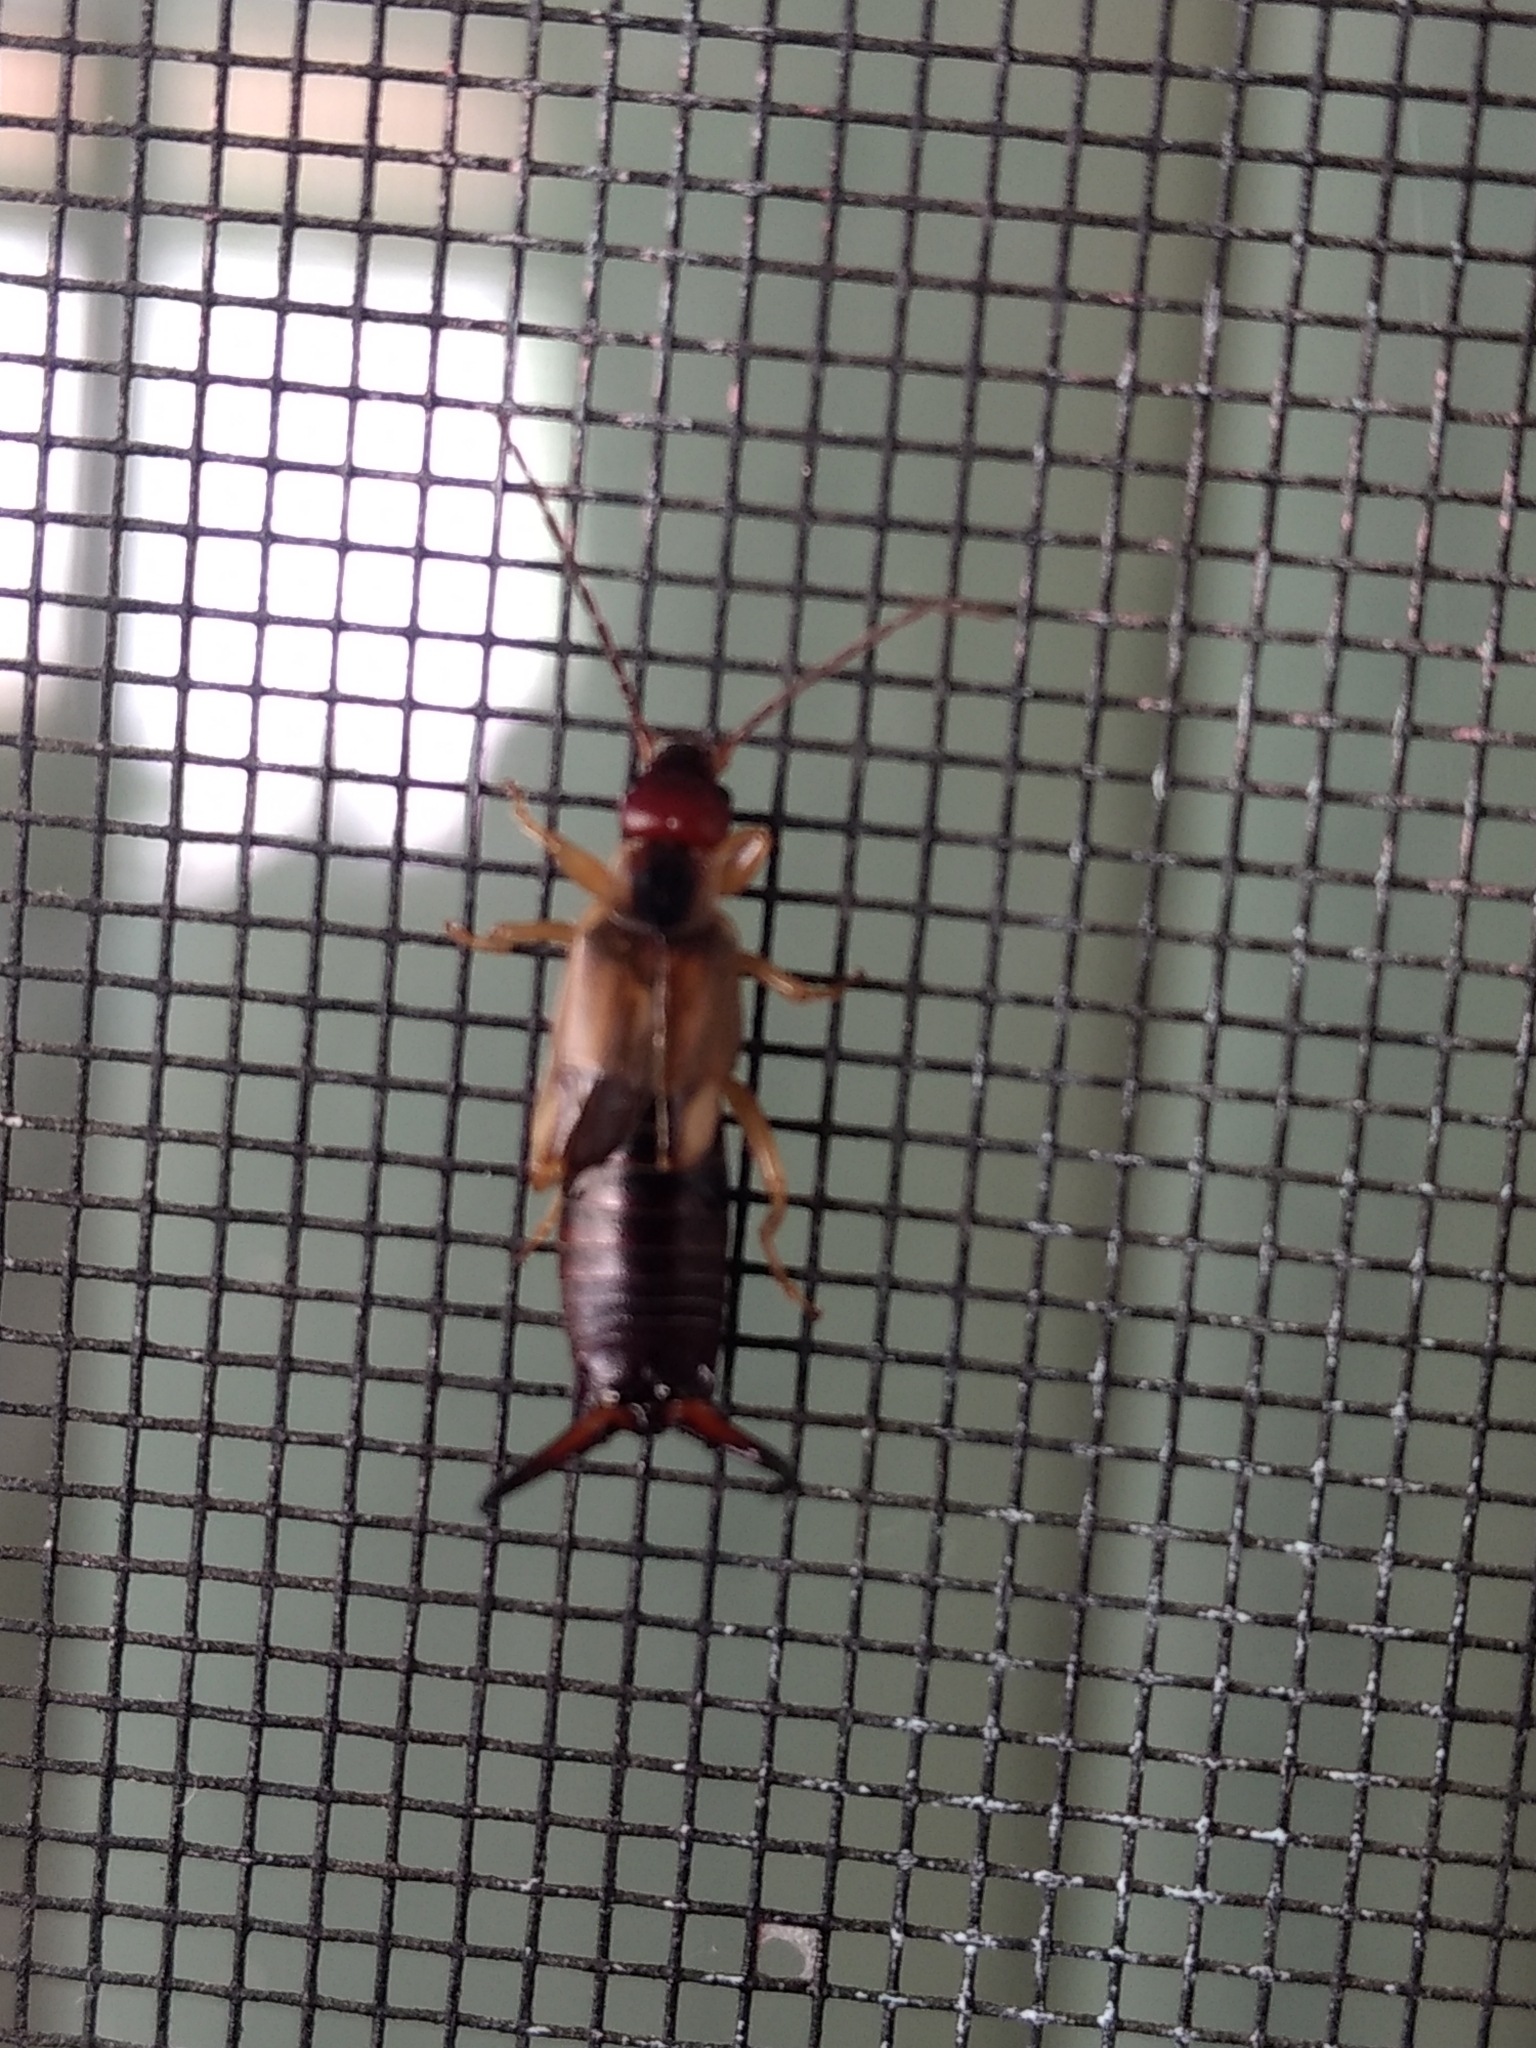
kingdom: Animalia
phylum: Arthropoda
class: Insecta
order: Dermaptera
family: Forficulidae
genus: Forficula
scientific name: Forficula
